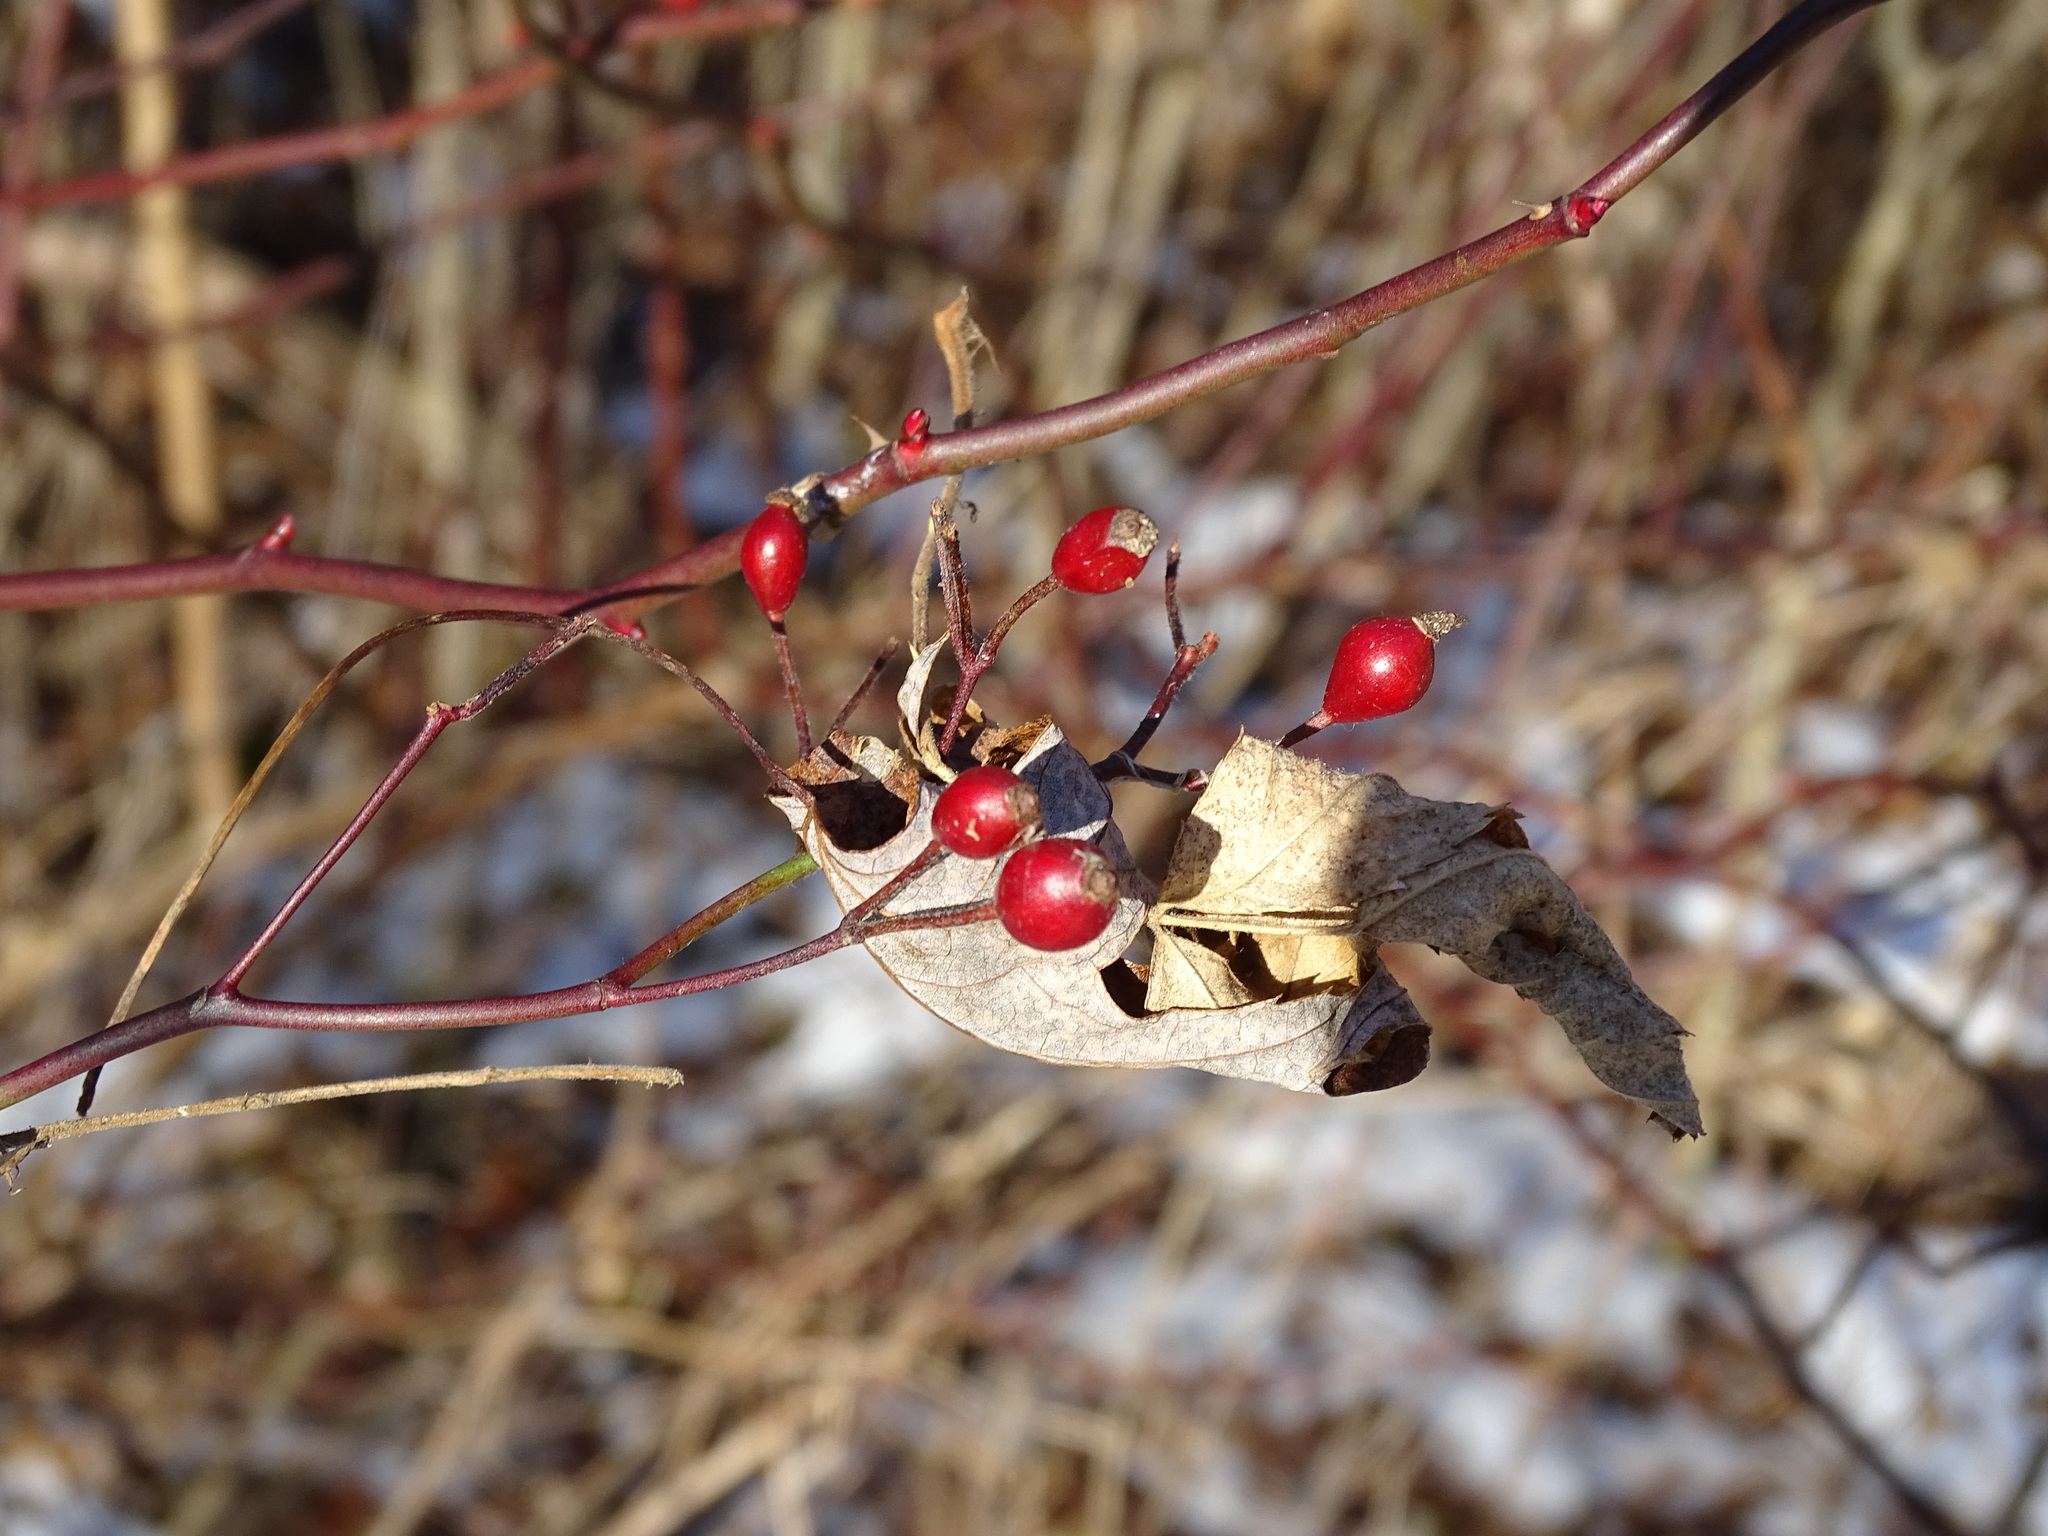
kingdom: Plantae
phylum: Tracheophyta
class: Magnoliopsida
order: Rosales
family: Rosaceae
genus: Rosa
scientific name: Rosa multiflora
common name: Multiflora rose
